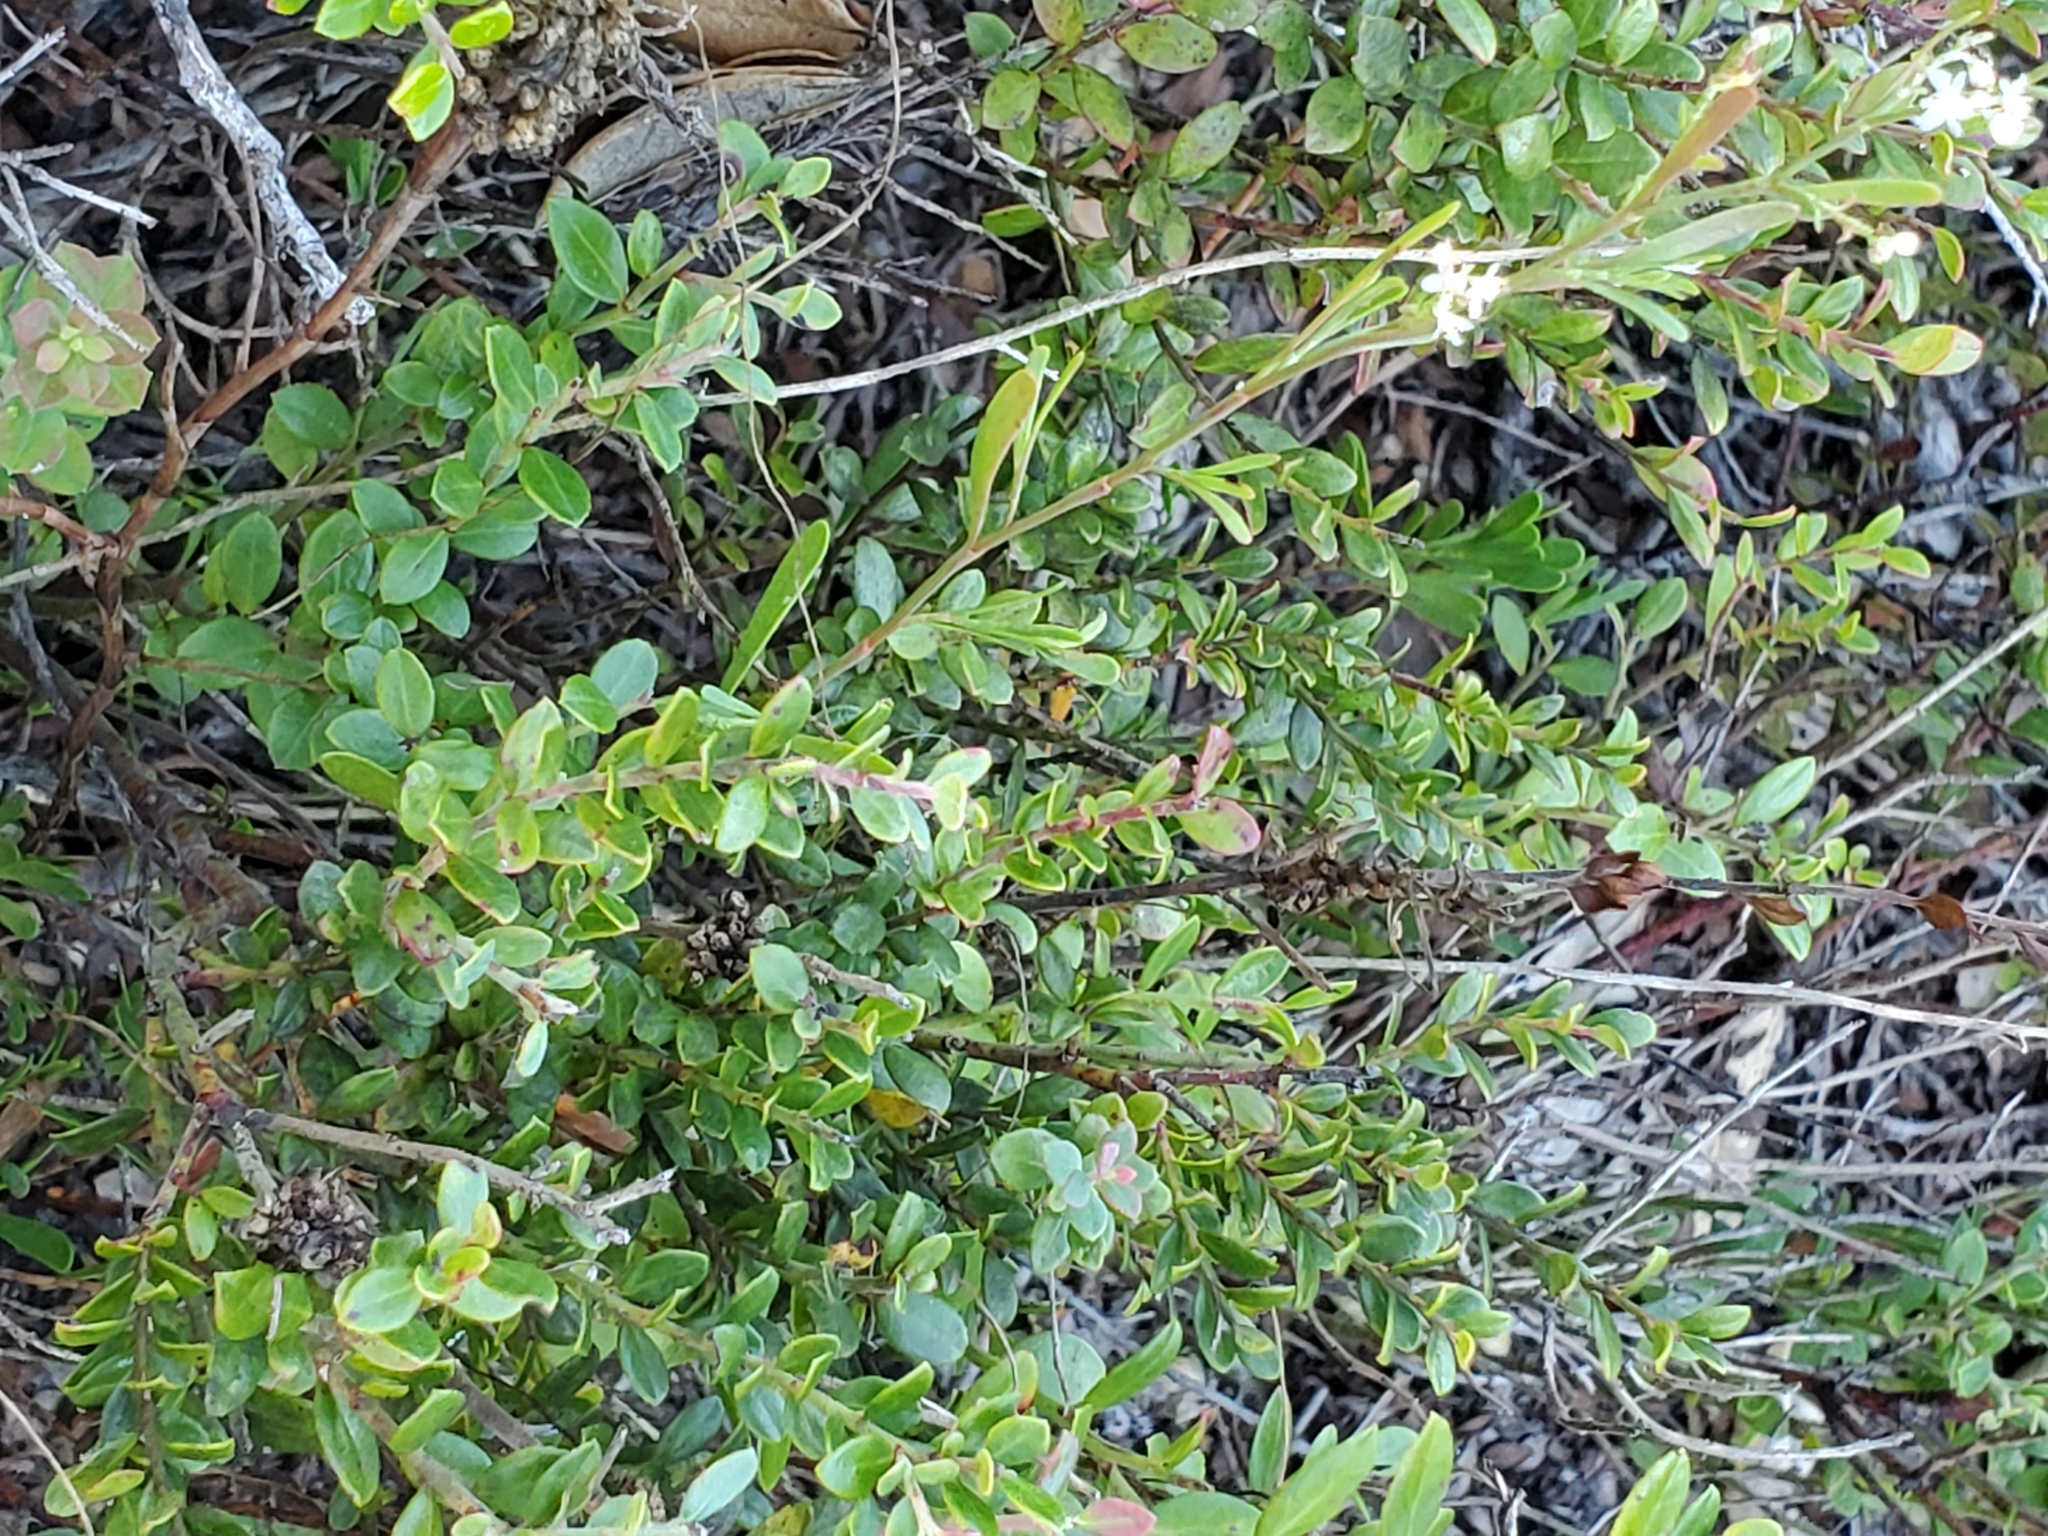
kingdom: Plantae
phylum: Tracheophyta
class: Magnoliopsida
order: Caryophyllales
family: Polygonaceae
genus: Polygonella
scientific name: Polygonella polygama
